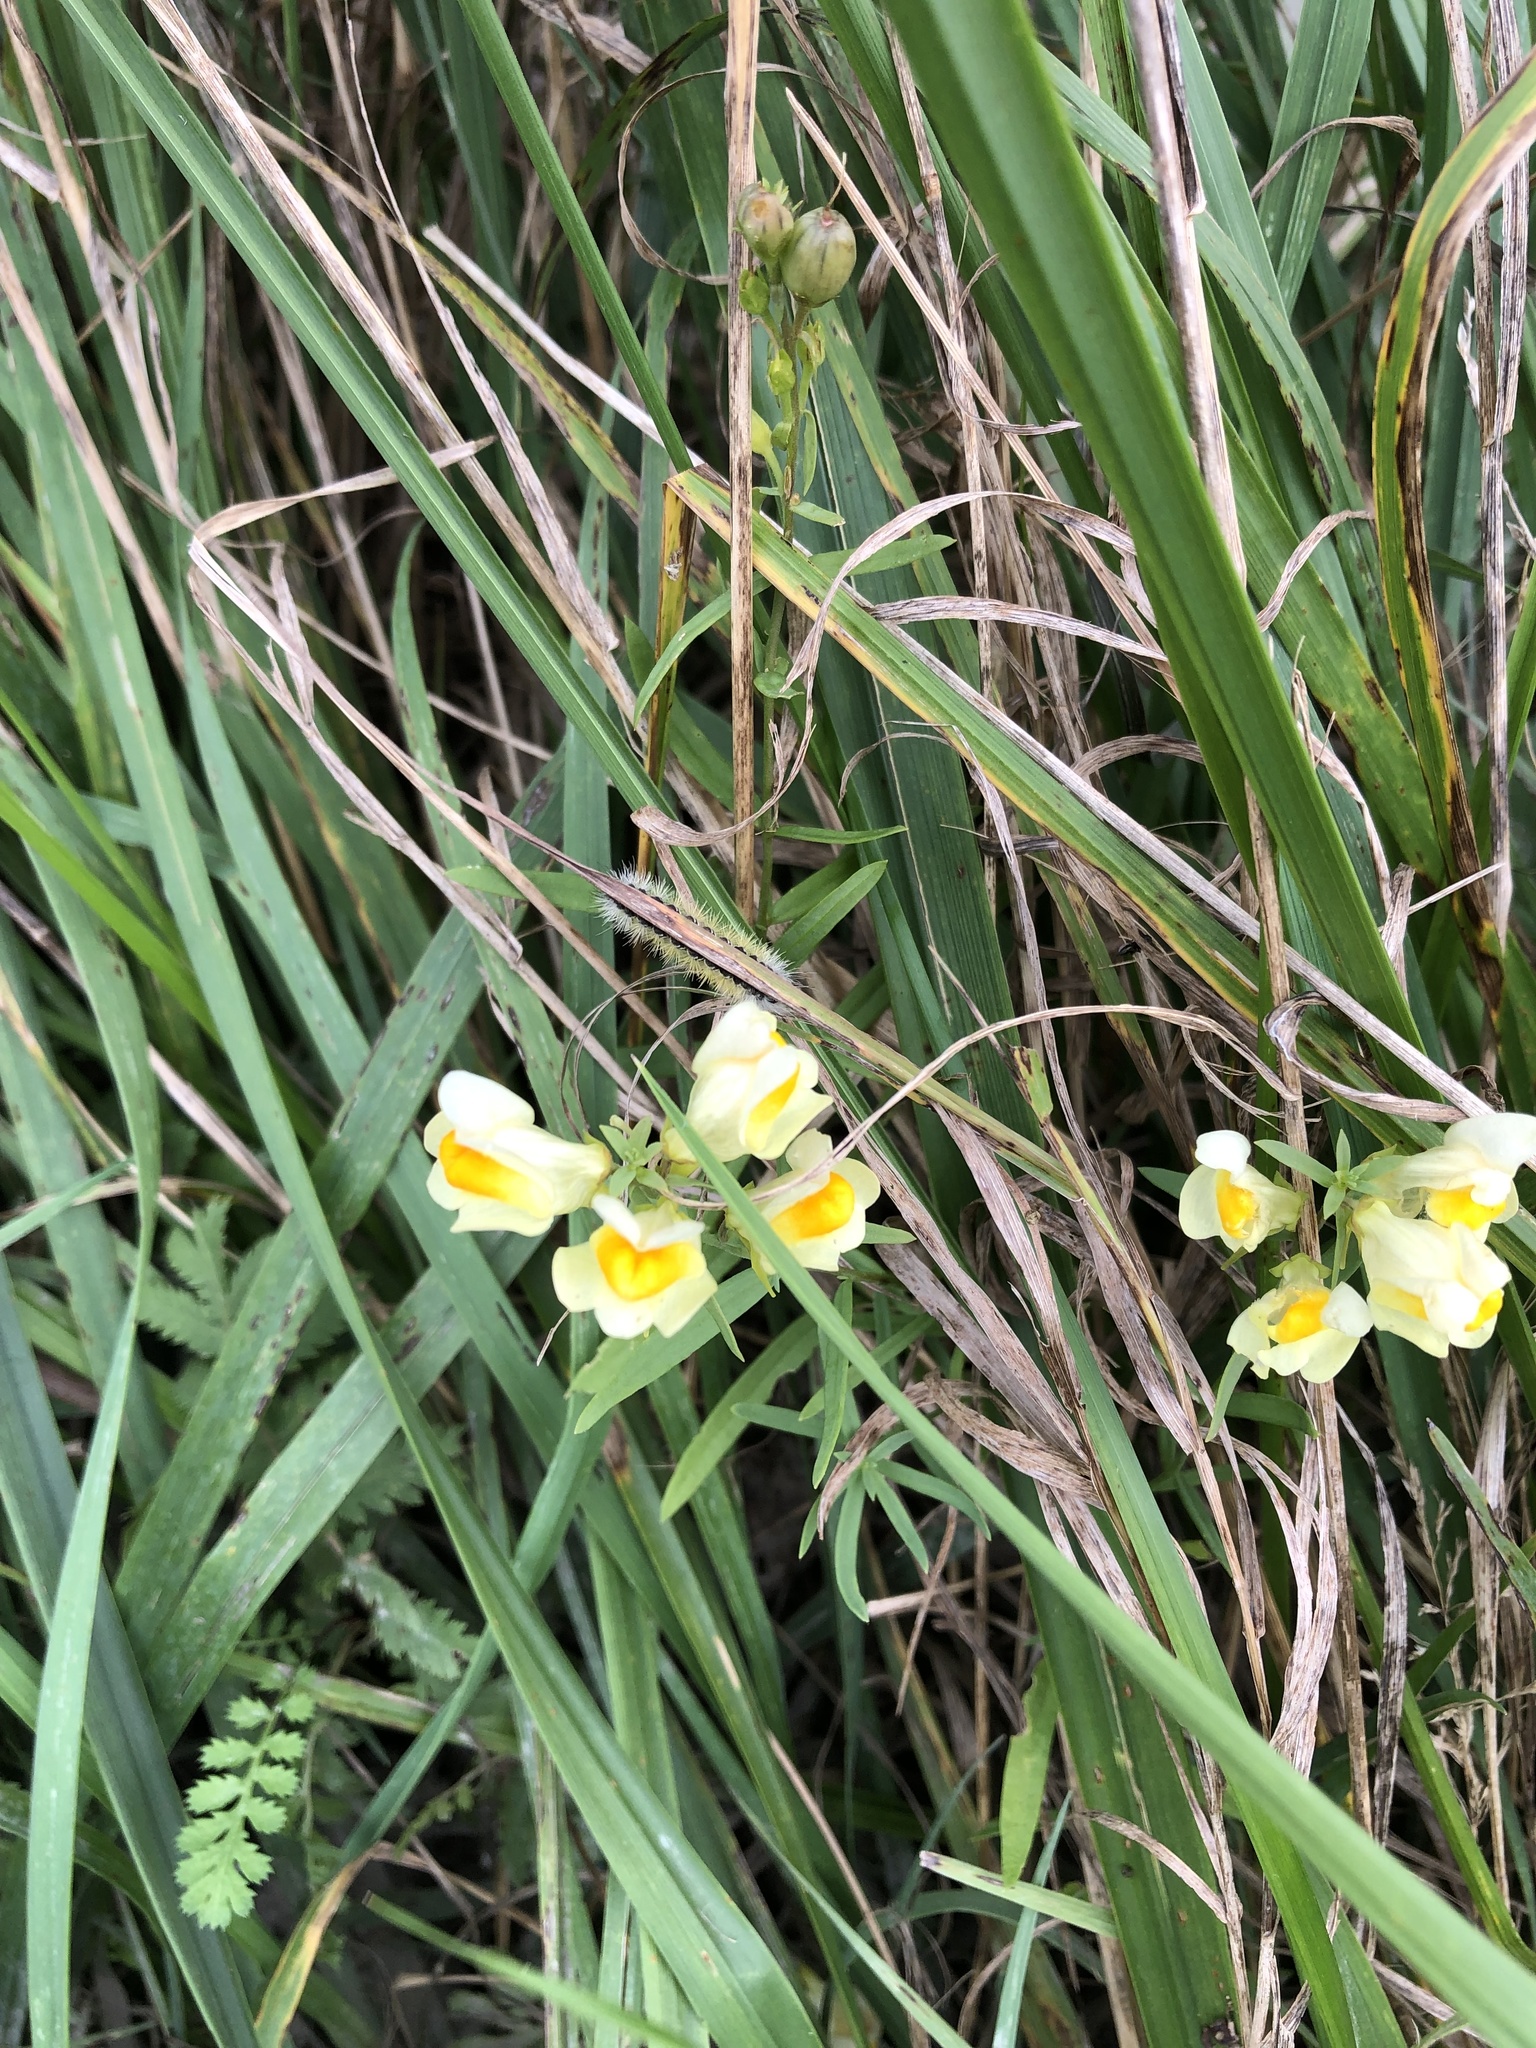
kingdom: Plantae
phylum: Tracheophyta
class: Magnoliopsida
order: Lamiales
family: Plantaginaceae
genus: Linaria
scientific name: Linaria vulgaris
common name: Butter and eggs
